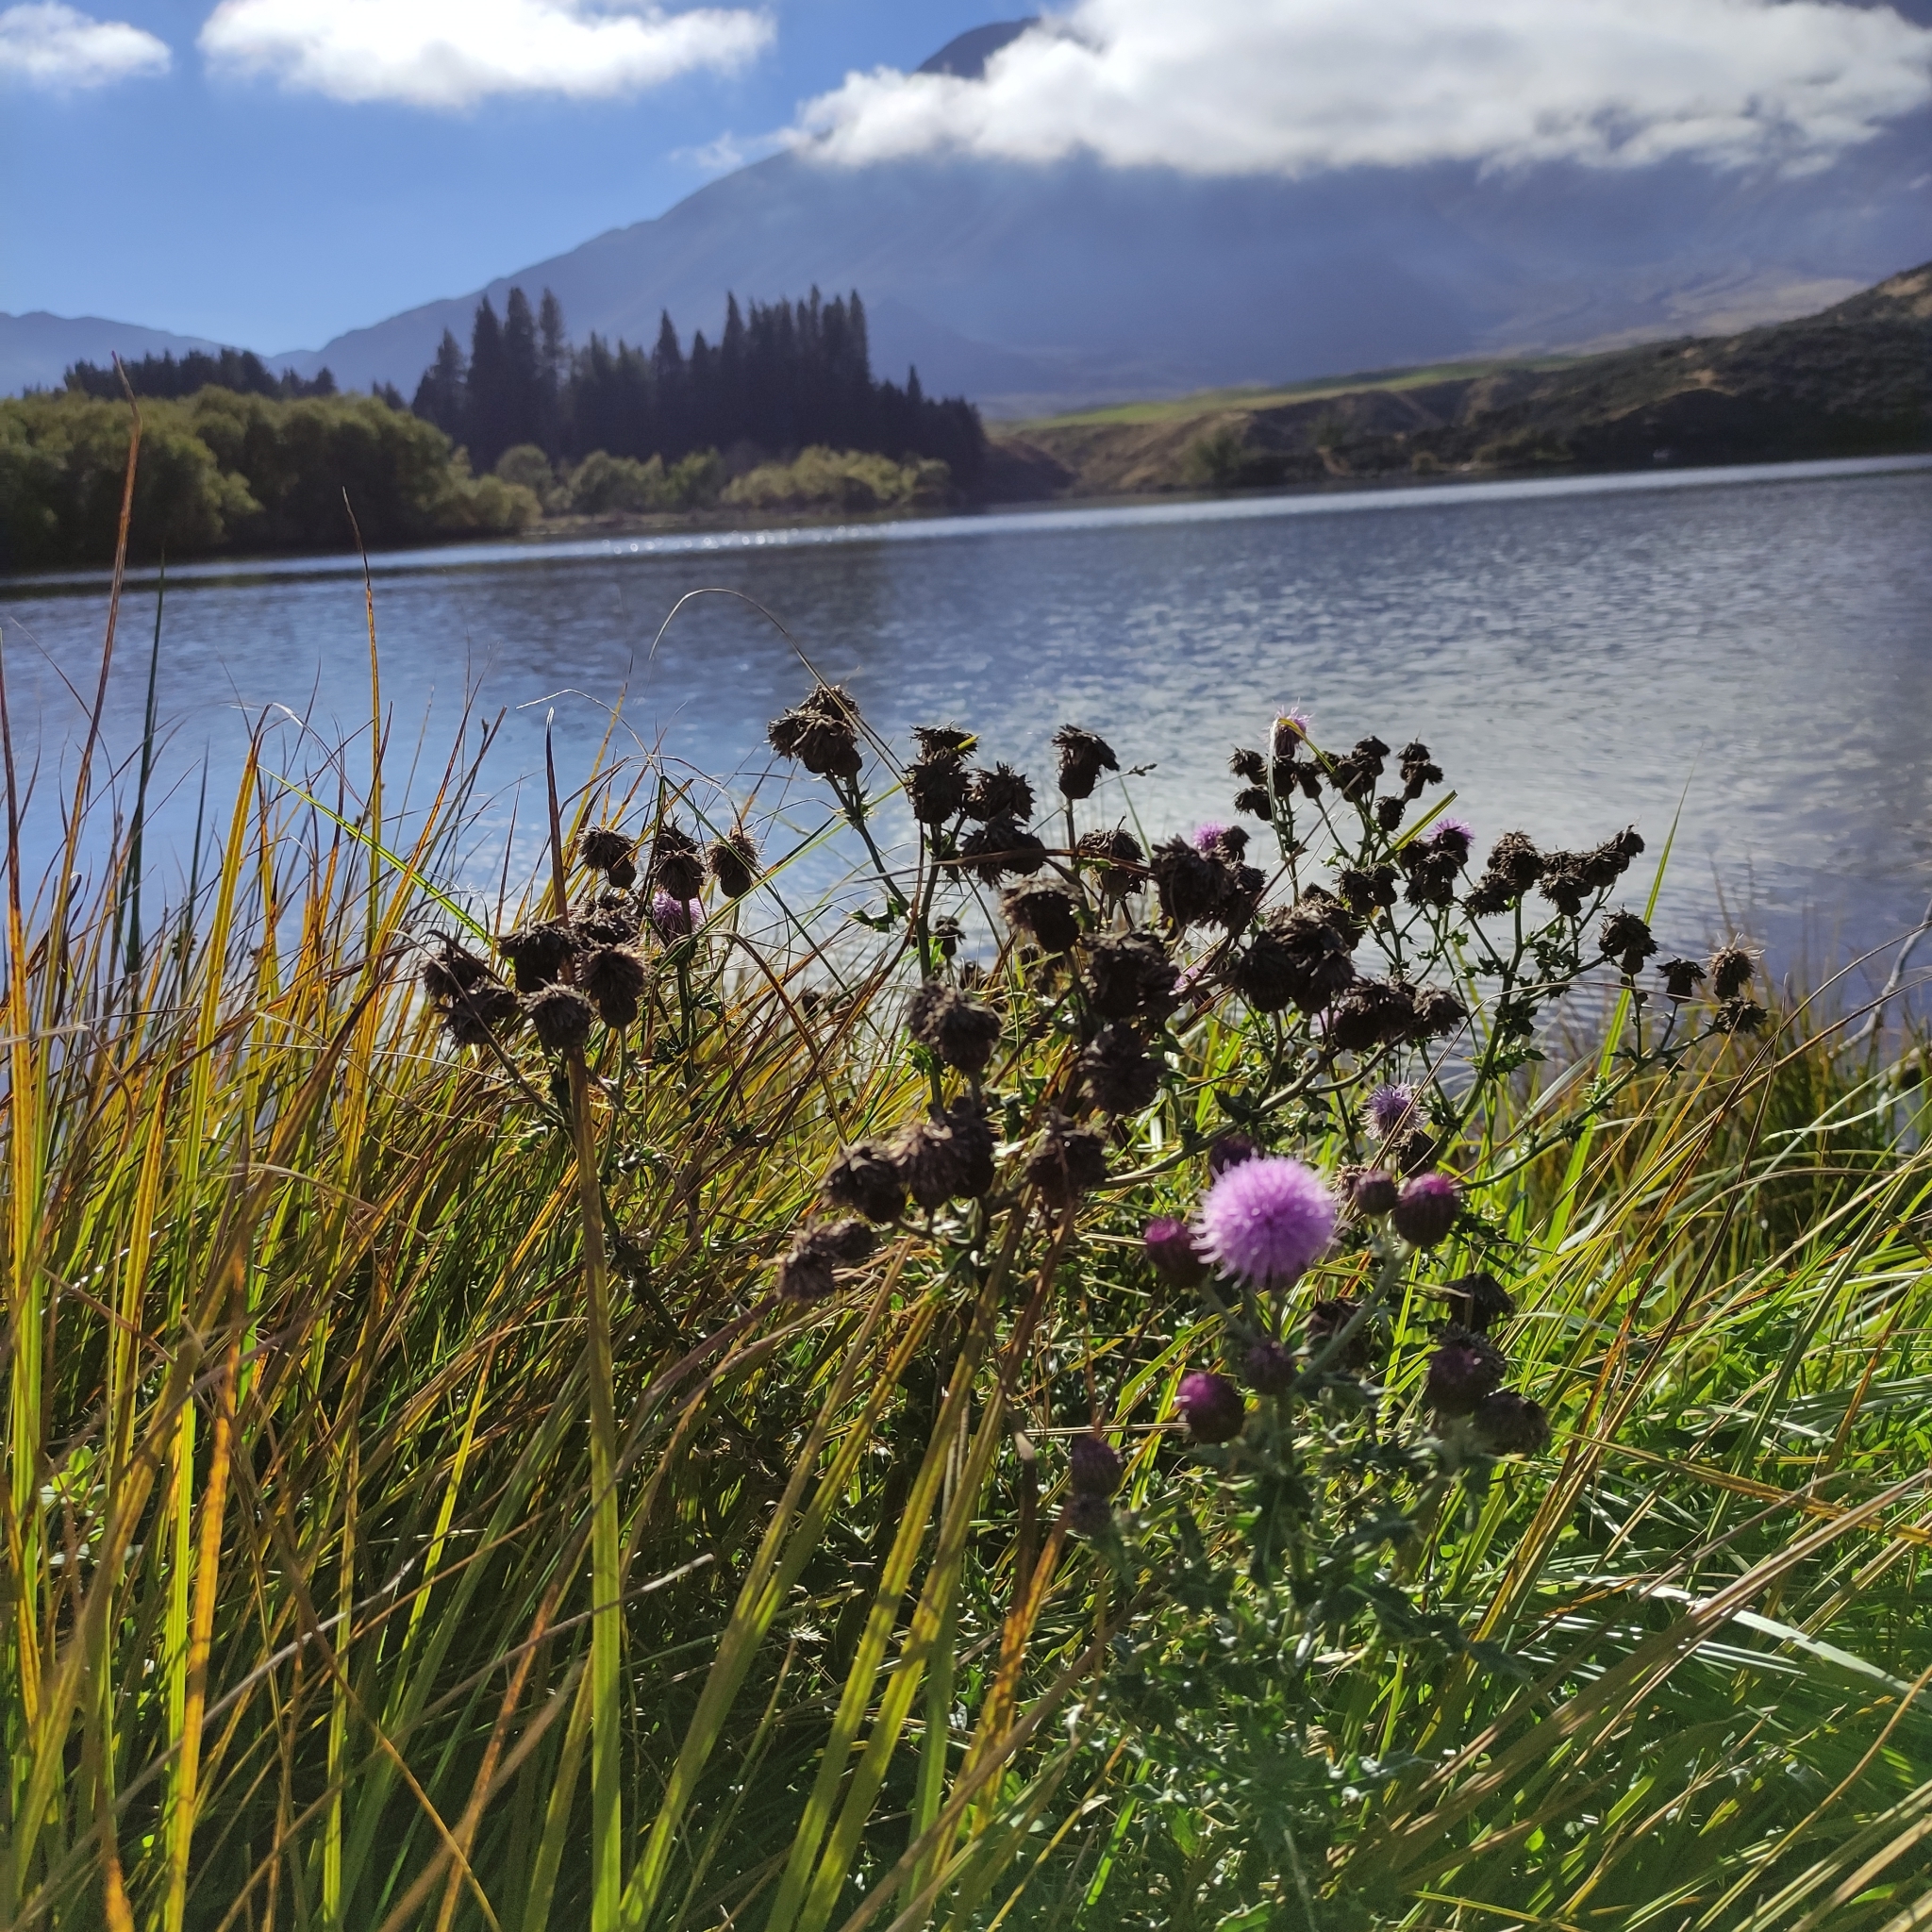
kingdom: Plantae
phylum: Tracheophyta
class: Magnoliopsida
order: Asterales
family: Asteraceae
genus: Cirsium
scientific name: Cirsium arvense
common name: Creeping thistle
